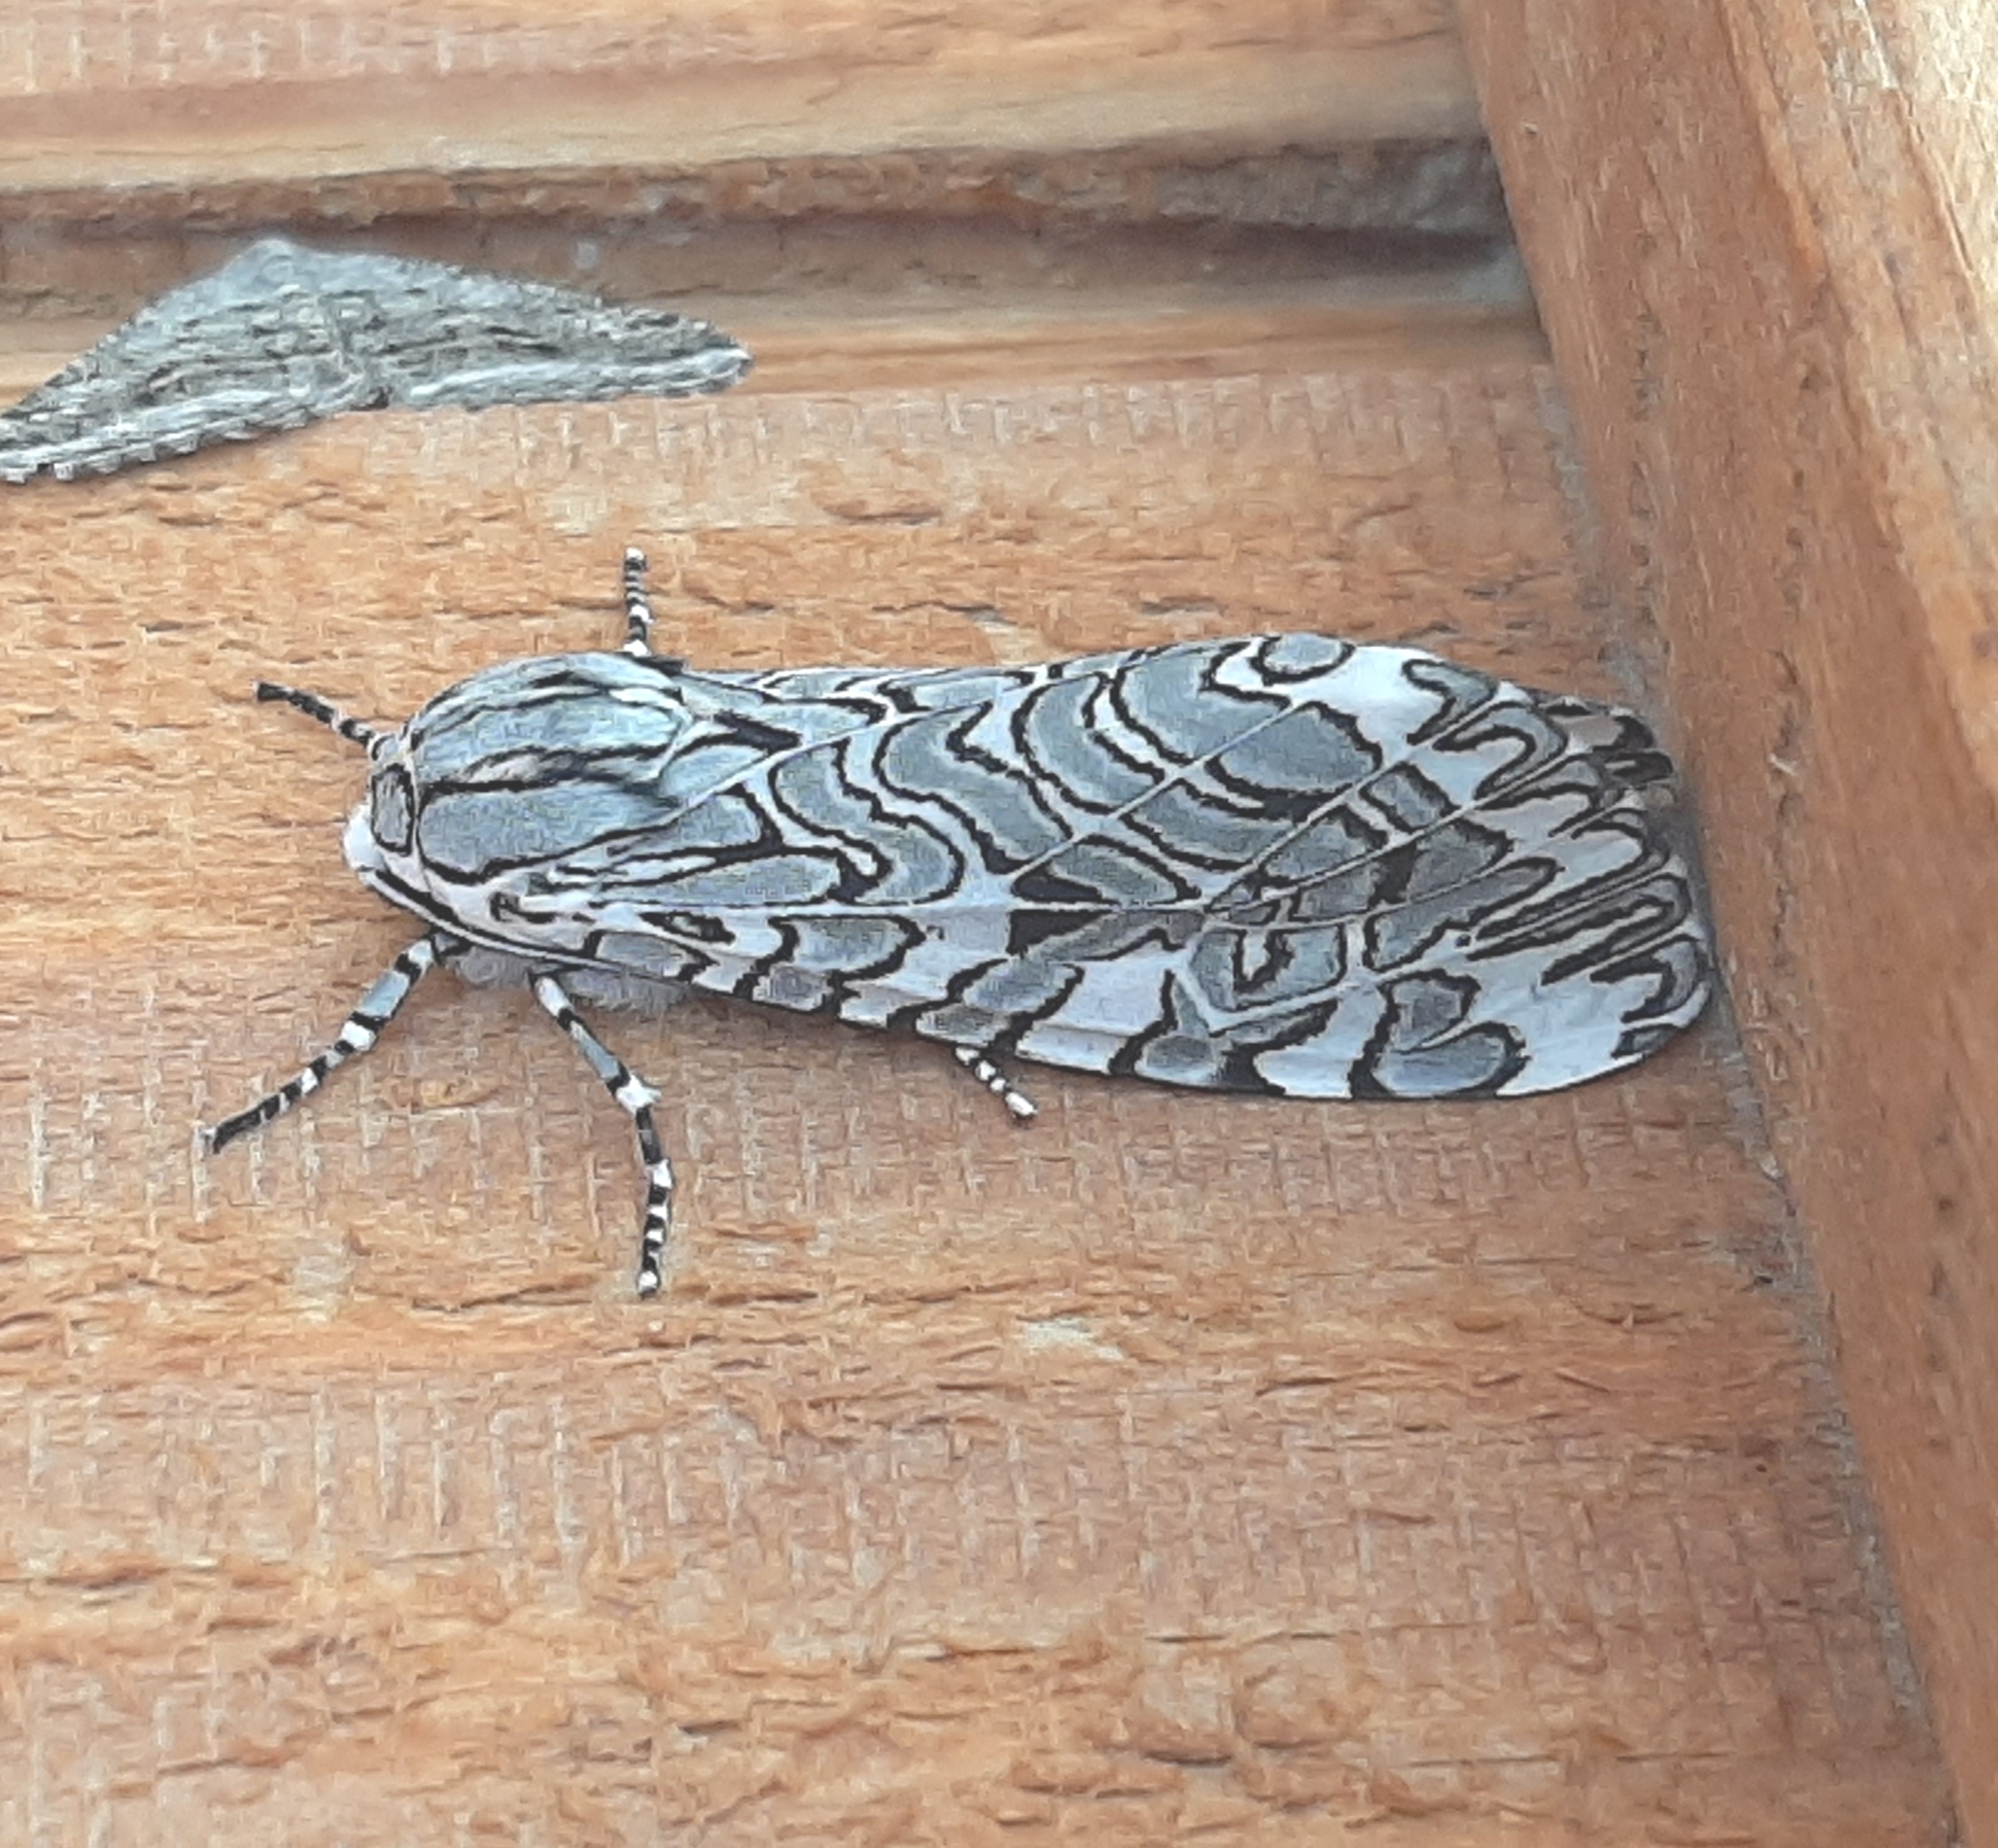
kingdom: Animalia
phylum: Arthropoda
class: Insecta
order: Lepidoptera
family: Erebidae
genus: Arachnis
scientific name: Arachnis picta
